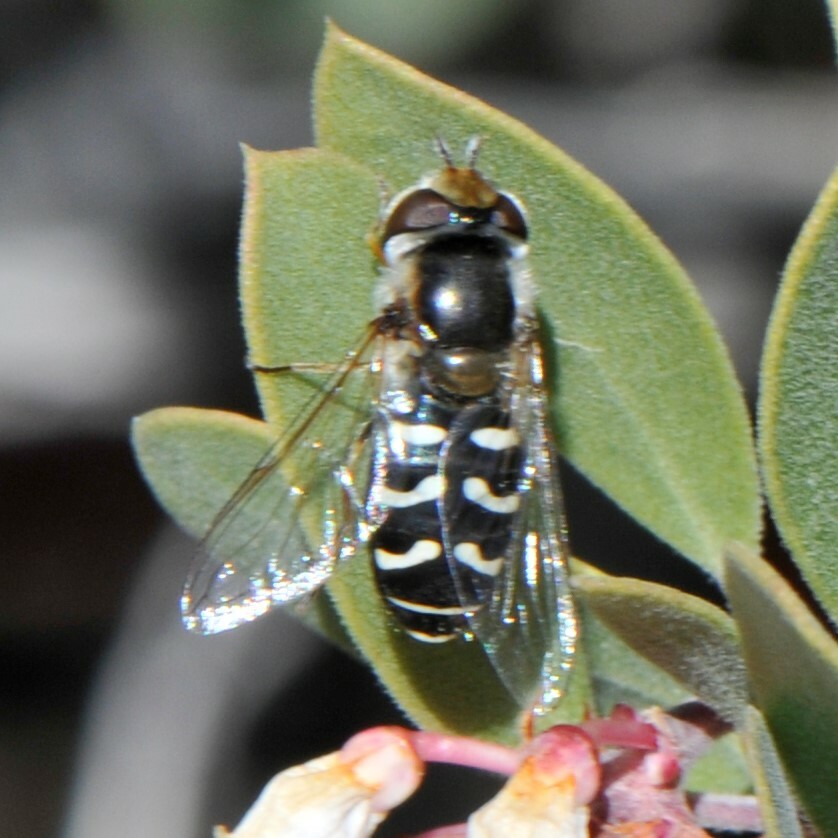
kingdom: Animalia
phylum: Arthropoda
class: Insecta
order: Diptera
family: Syrphidae
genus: Scaeva
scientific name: Scaeva affinis
